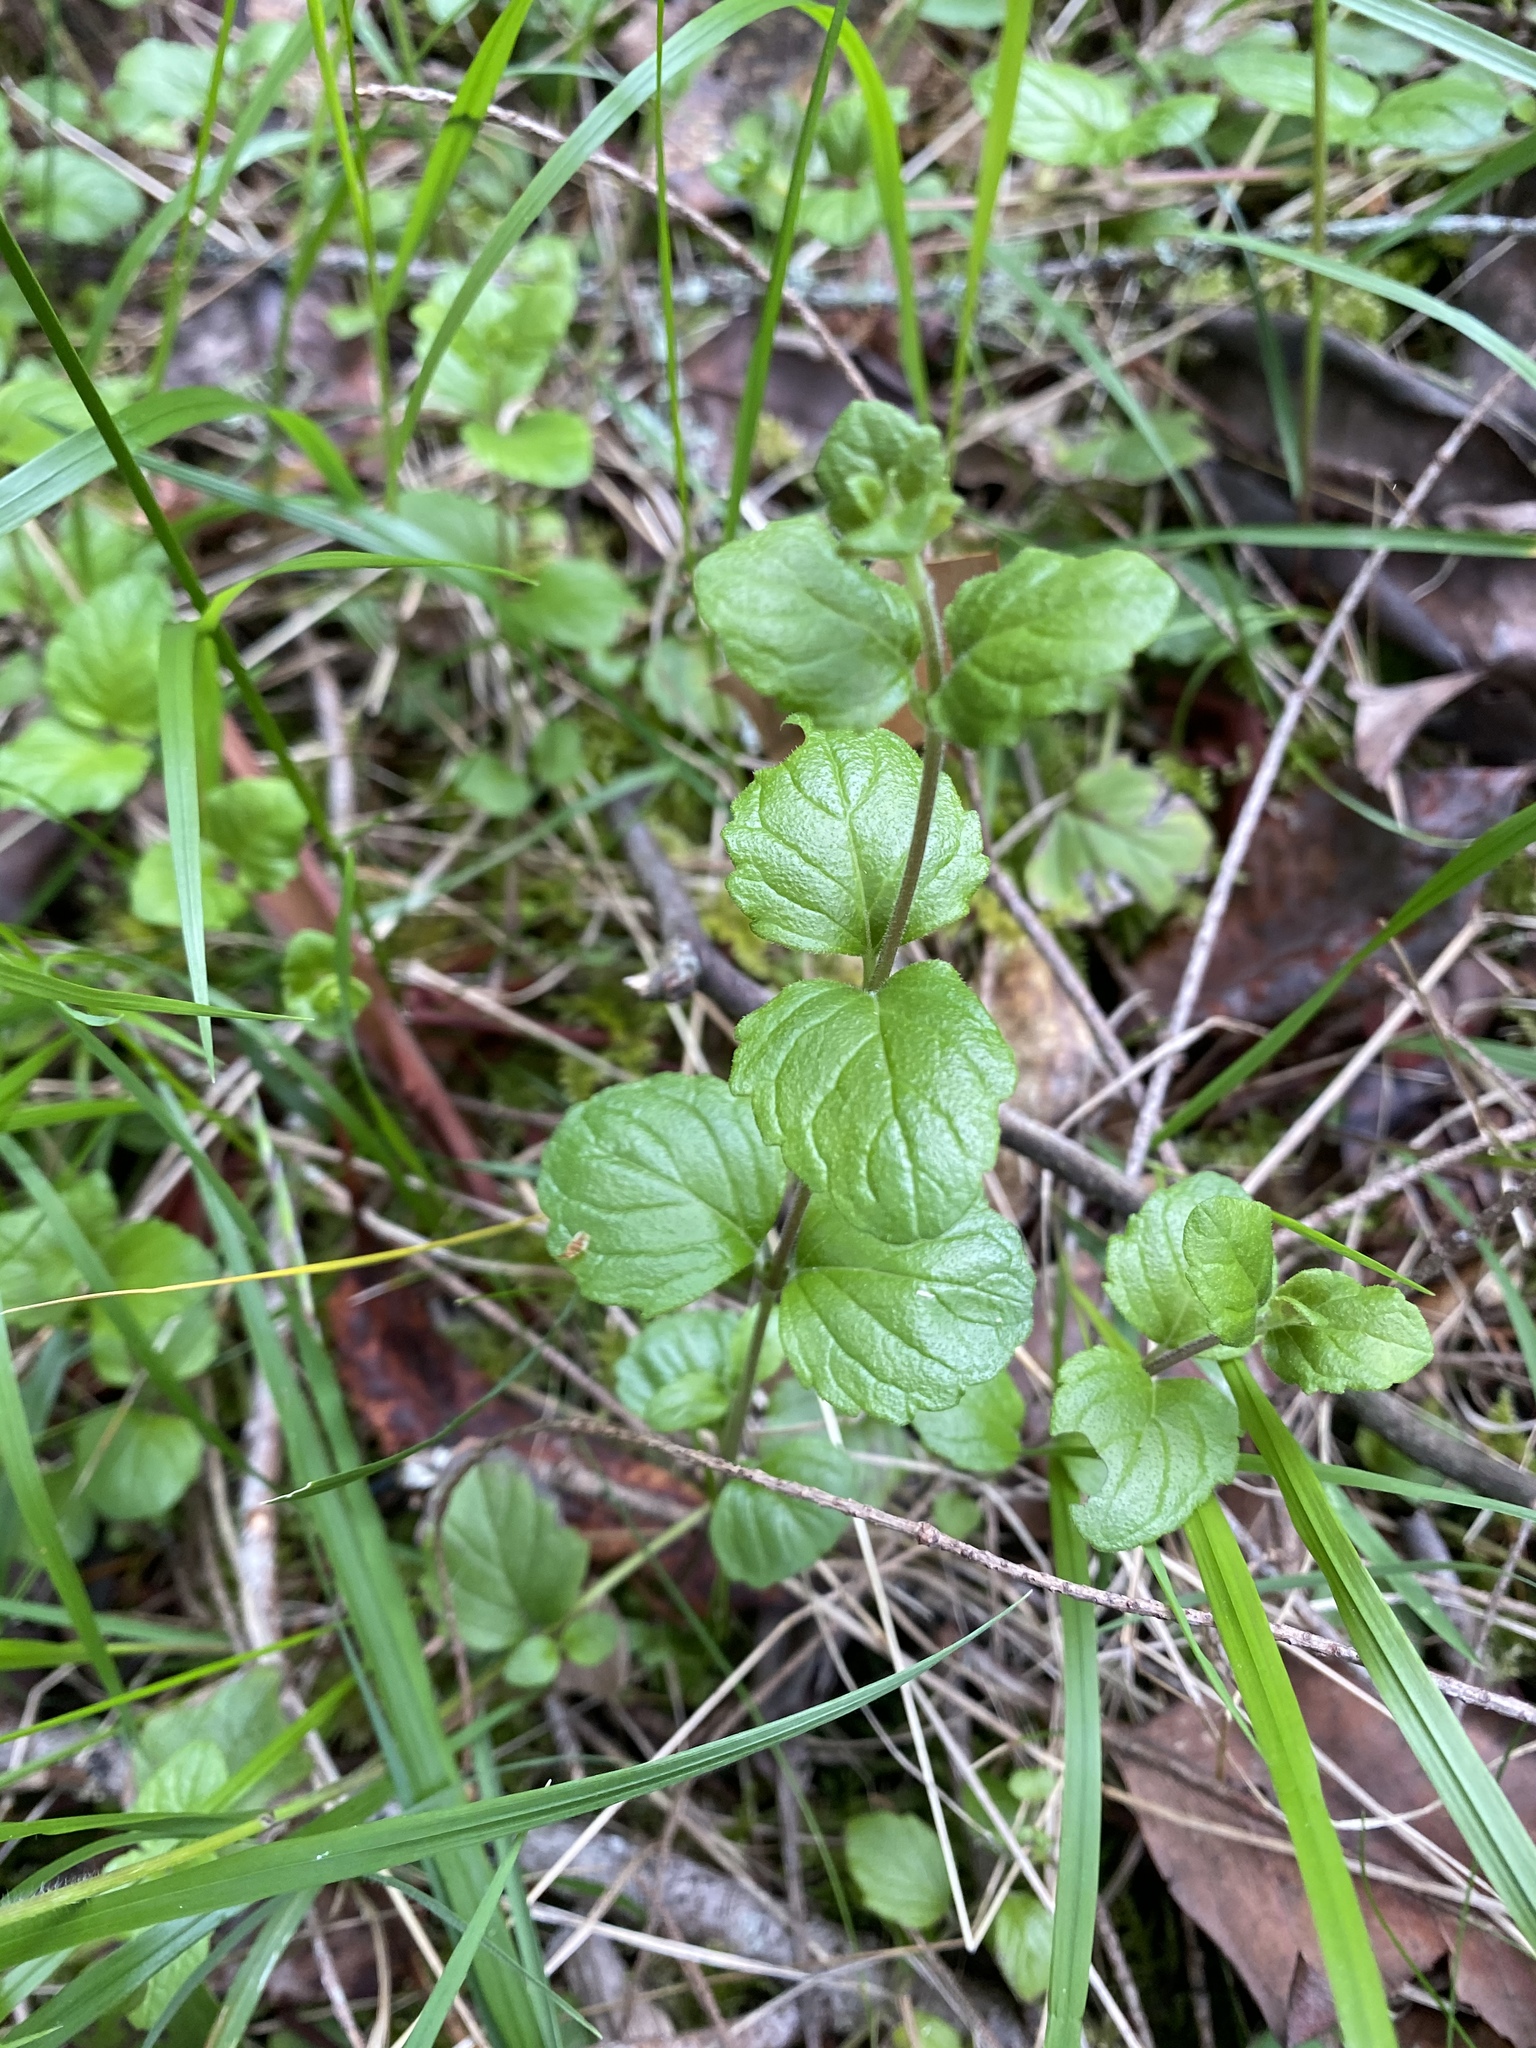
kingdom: Plantae
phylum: Tracheophyta
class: Magnoliopsida
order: Lamiales
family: Lamiaceae
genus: Micromeria
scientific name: Micromeria douglasii
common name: Yerba buena
